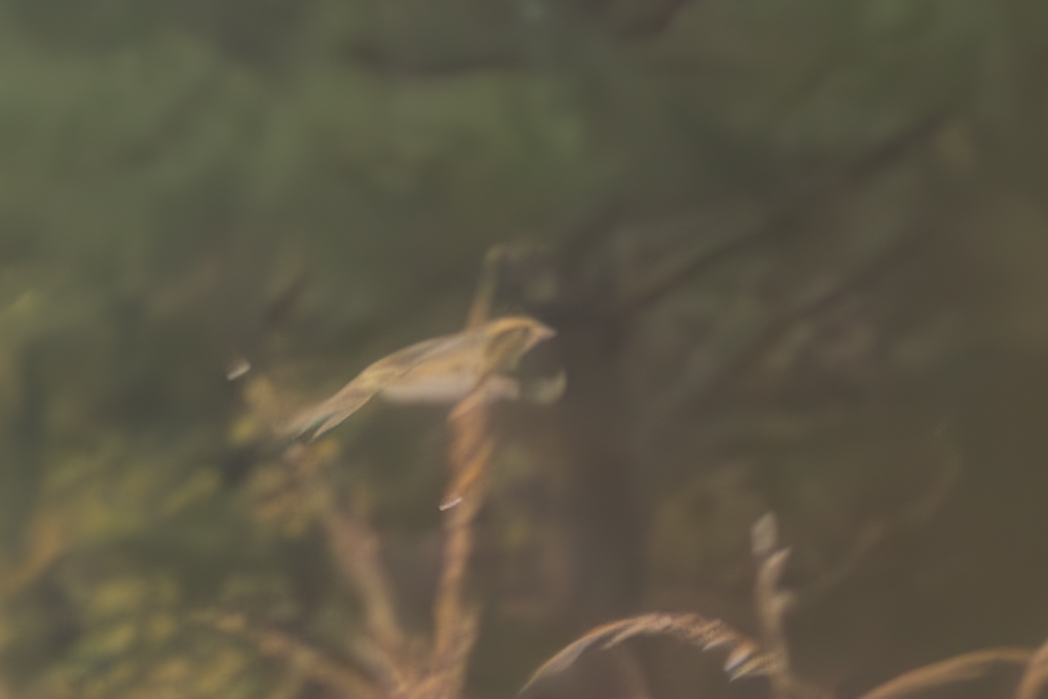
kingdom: Animalia
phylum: Chordata
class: Aves
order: Passeriformes
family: Passerellidae
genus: Ammospiza
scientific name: Ammospiza nelsoni
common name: Nelson's sparrow
